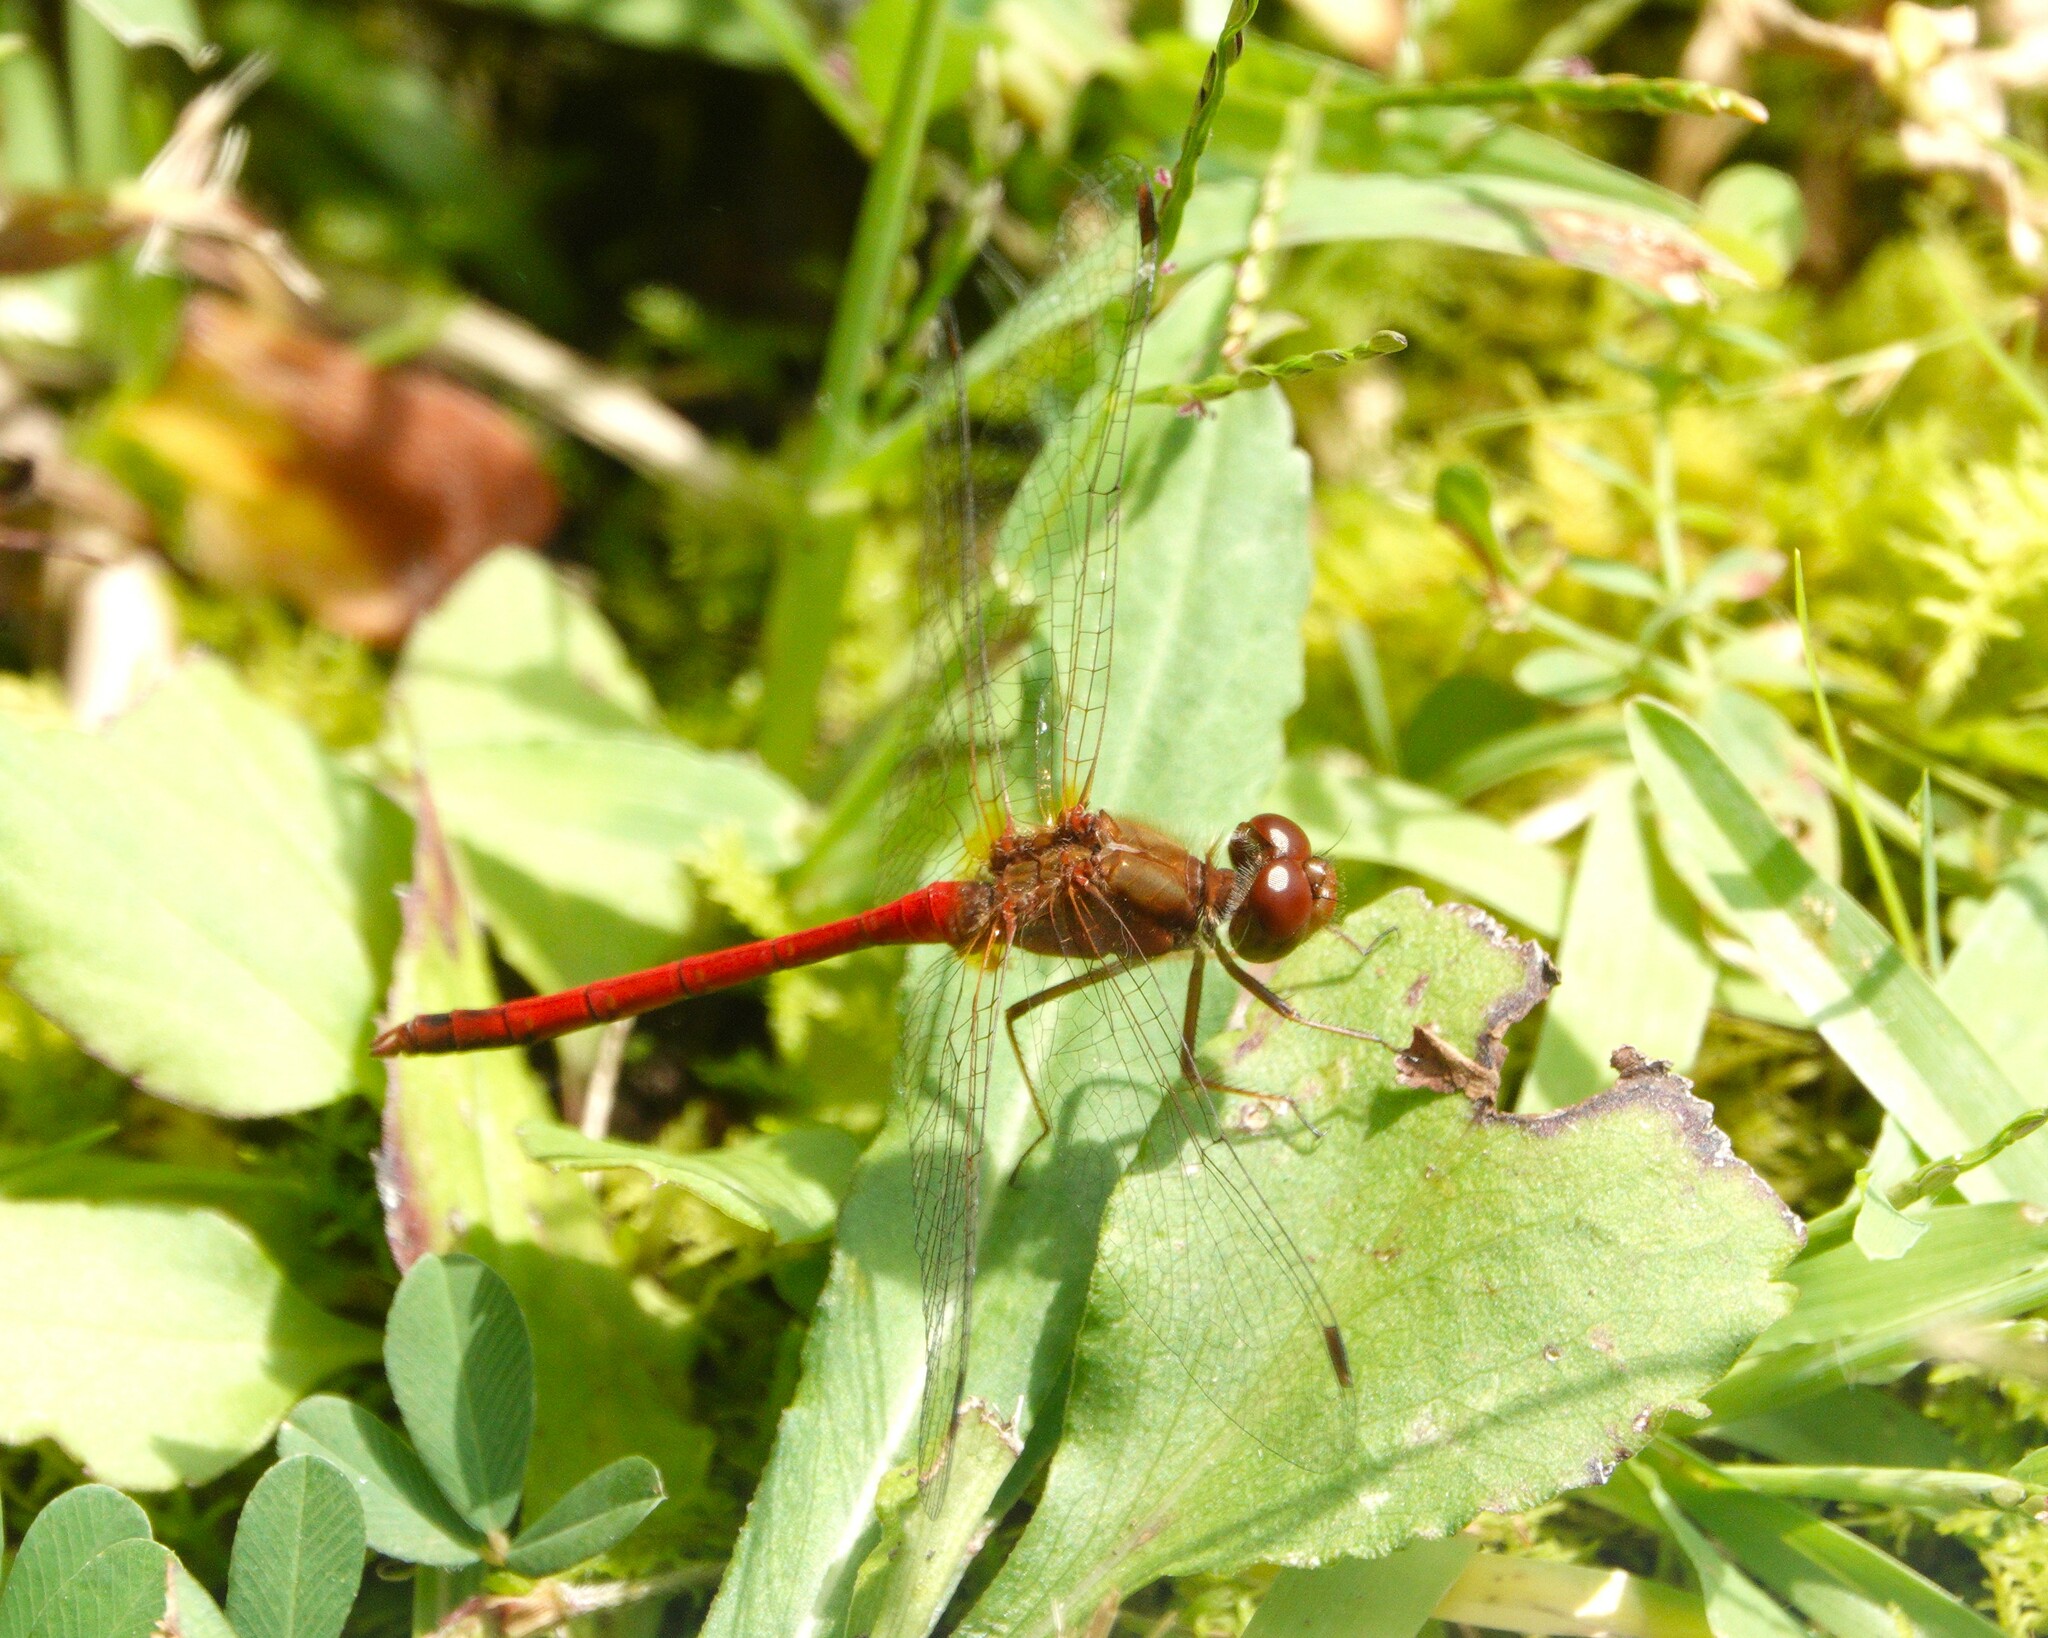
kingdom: Animalia
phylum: Arthropoda
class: Insecta
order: Odonata
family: Libellulidae
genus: Sympetrum
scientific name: Sympetrum vicinum
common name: Autumn meadowhawk
